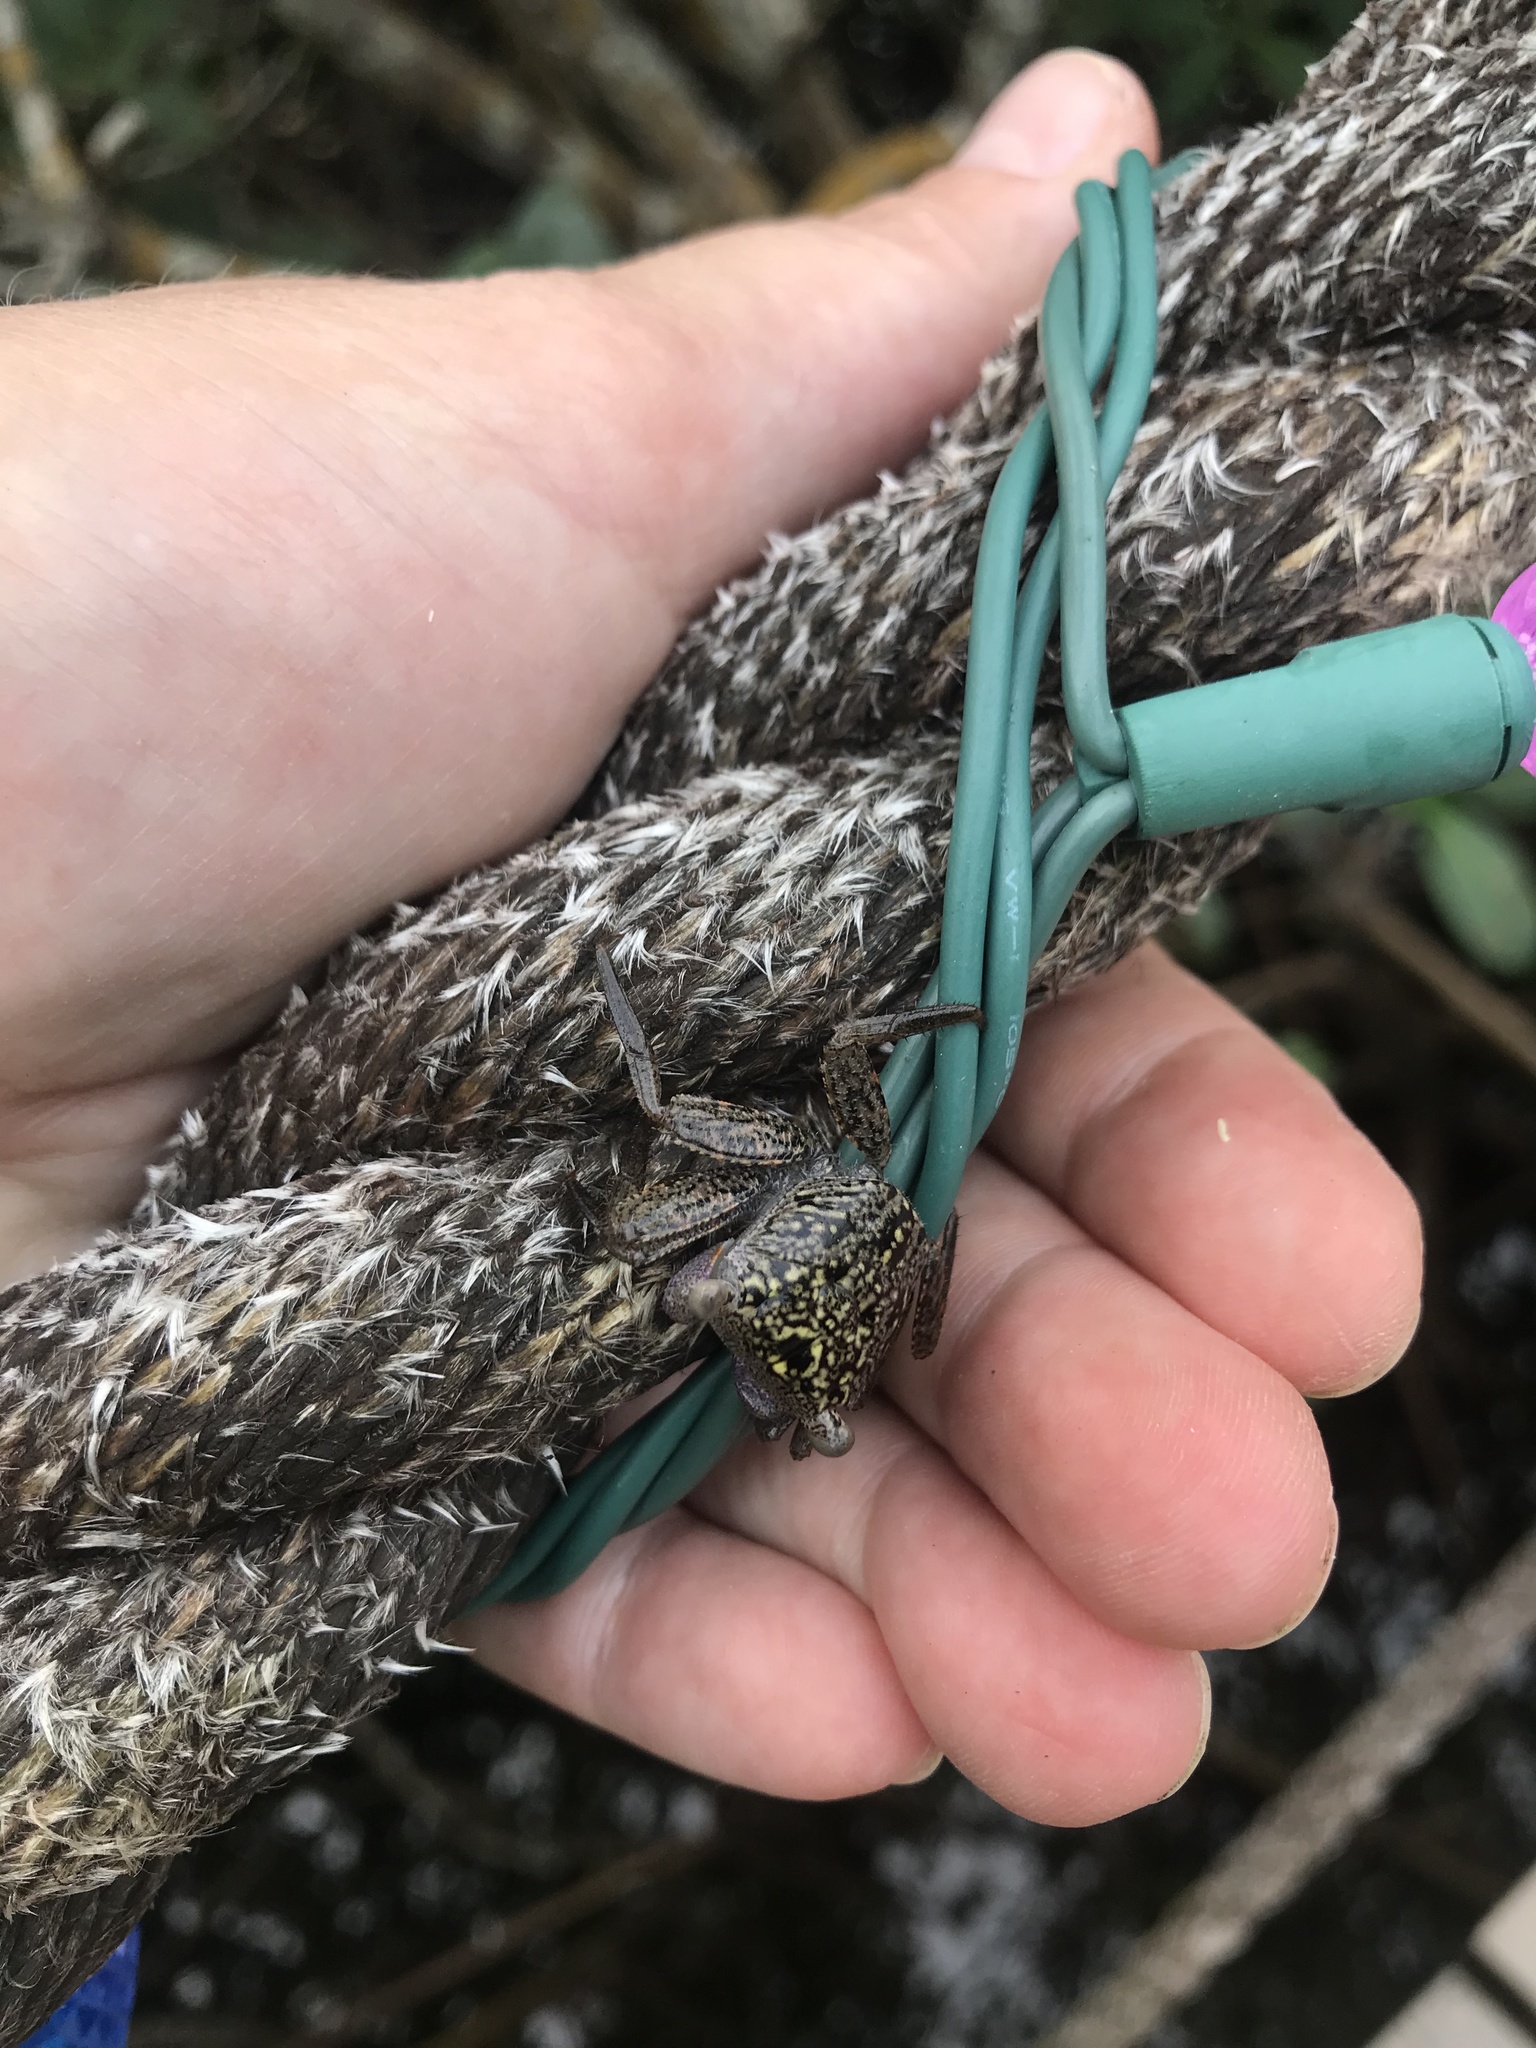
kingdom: Animalia
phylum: Arthropoda
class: Malacostraca
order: Decapoda
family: Sesarmidae
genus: Aratus
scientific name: Aratus pisonii
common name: Mangrove crab
